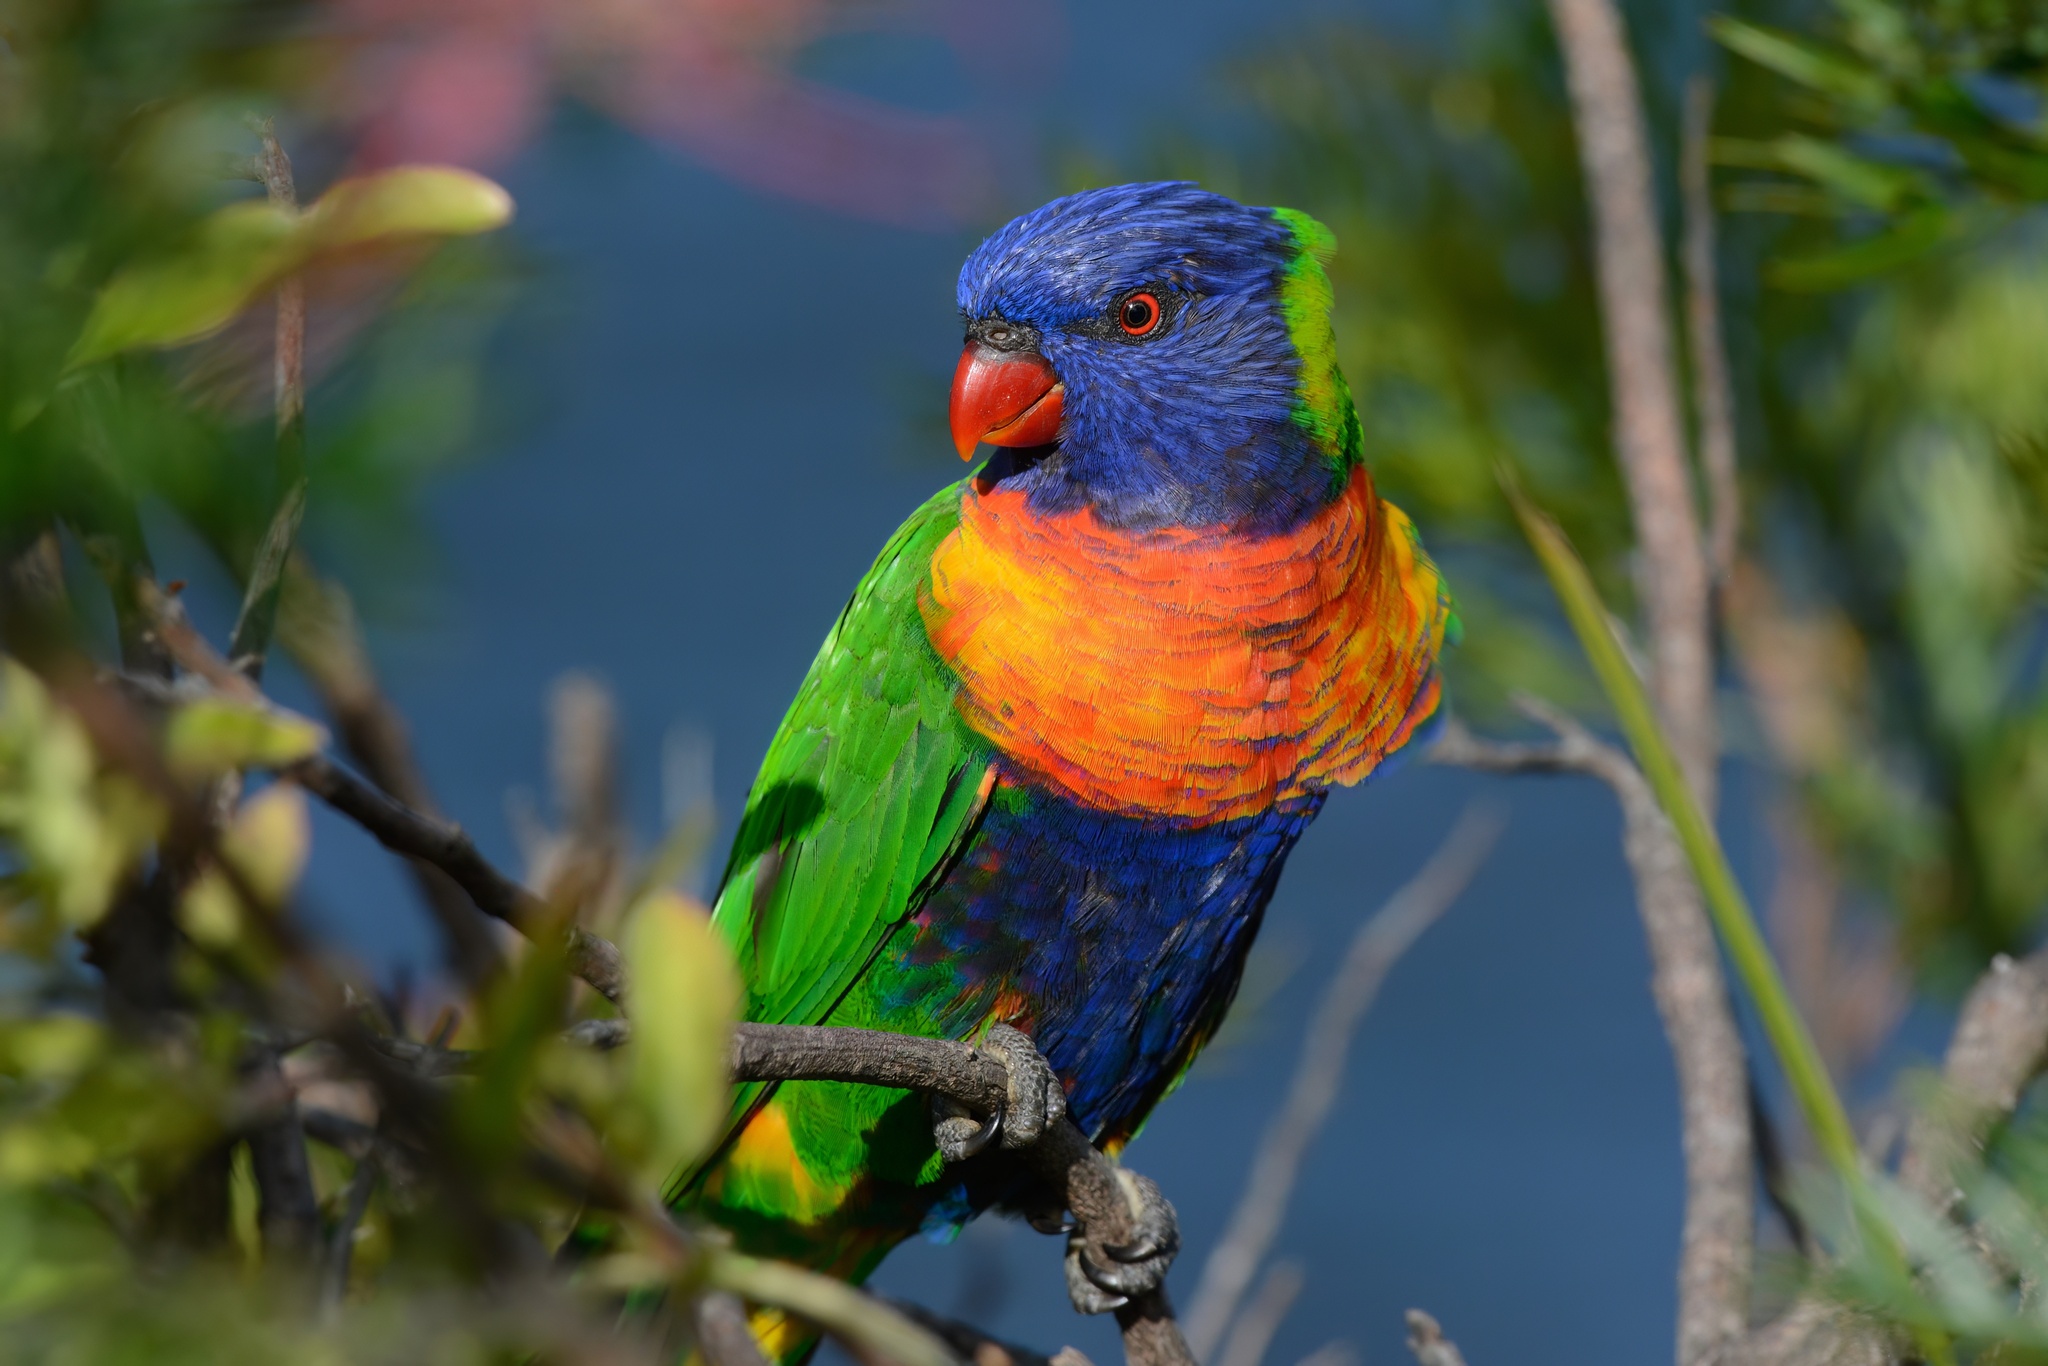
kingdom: Animalia
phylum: Chordata
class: Aves
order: Psittaciformes
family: Psittacidae
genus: Trichoglossus
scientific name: Trichoglossus haematodus
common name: Coconut lorikeet
